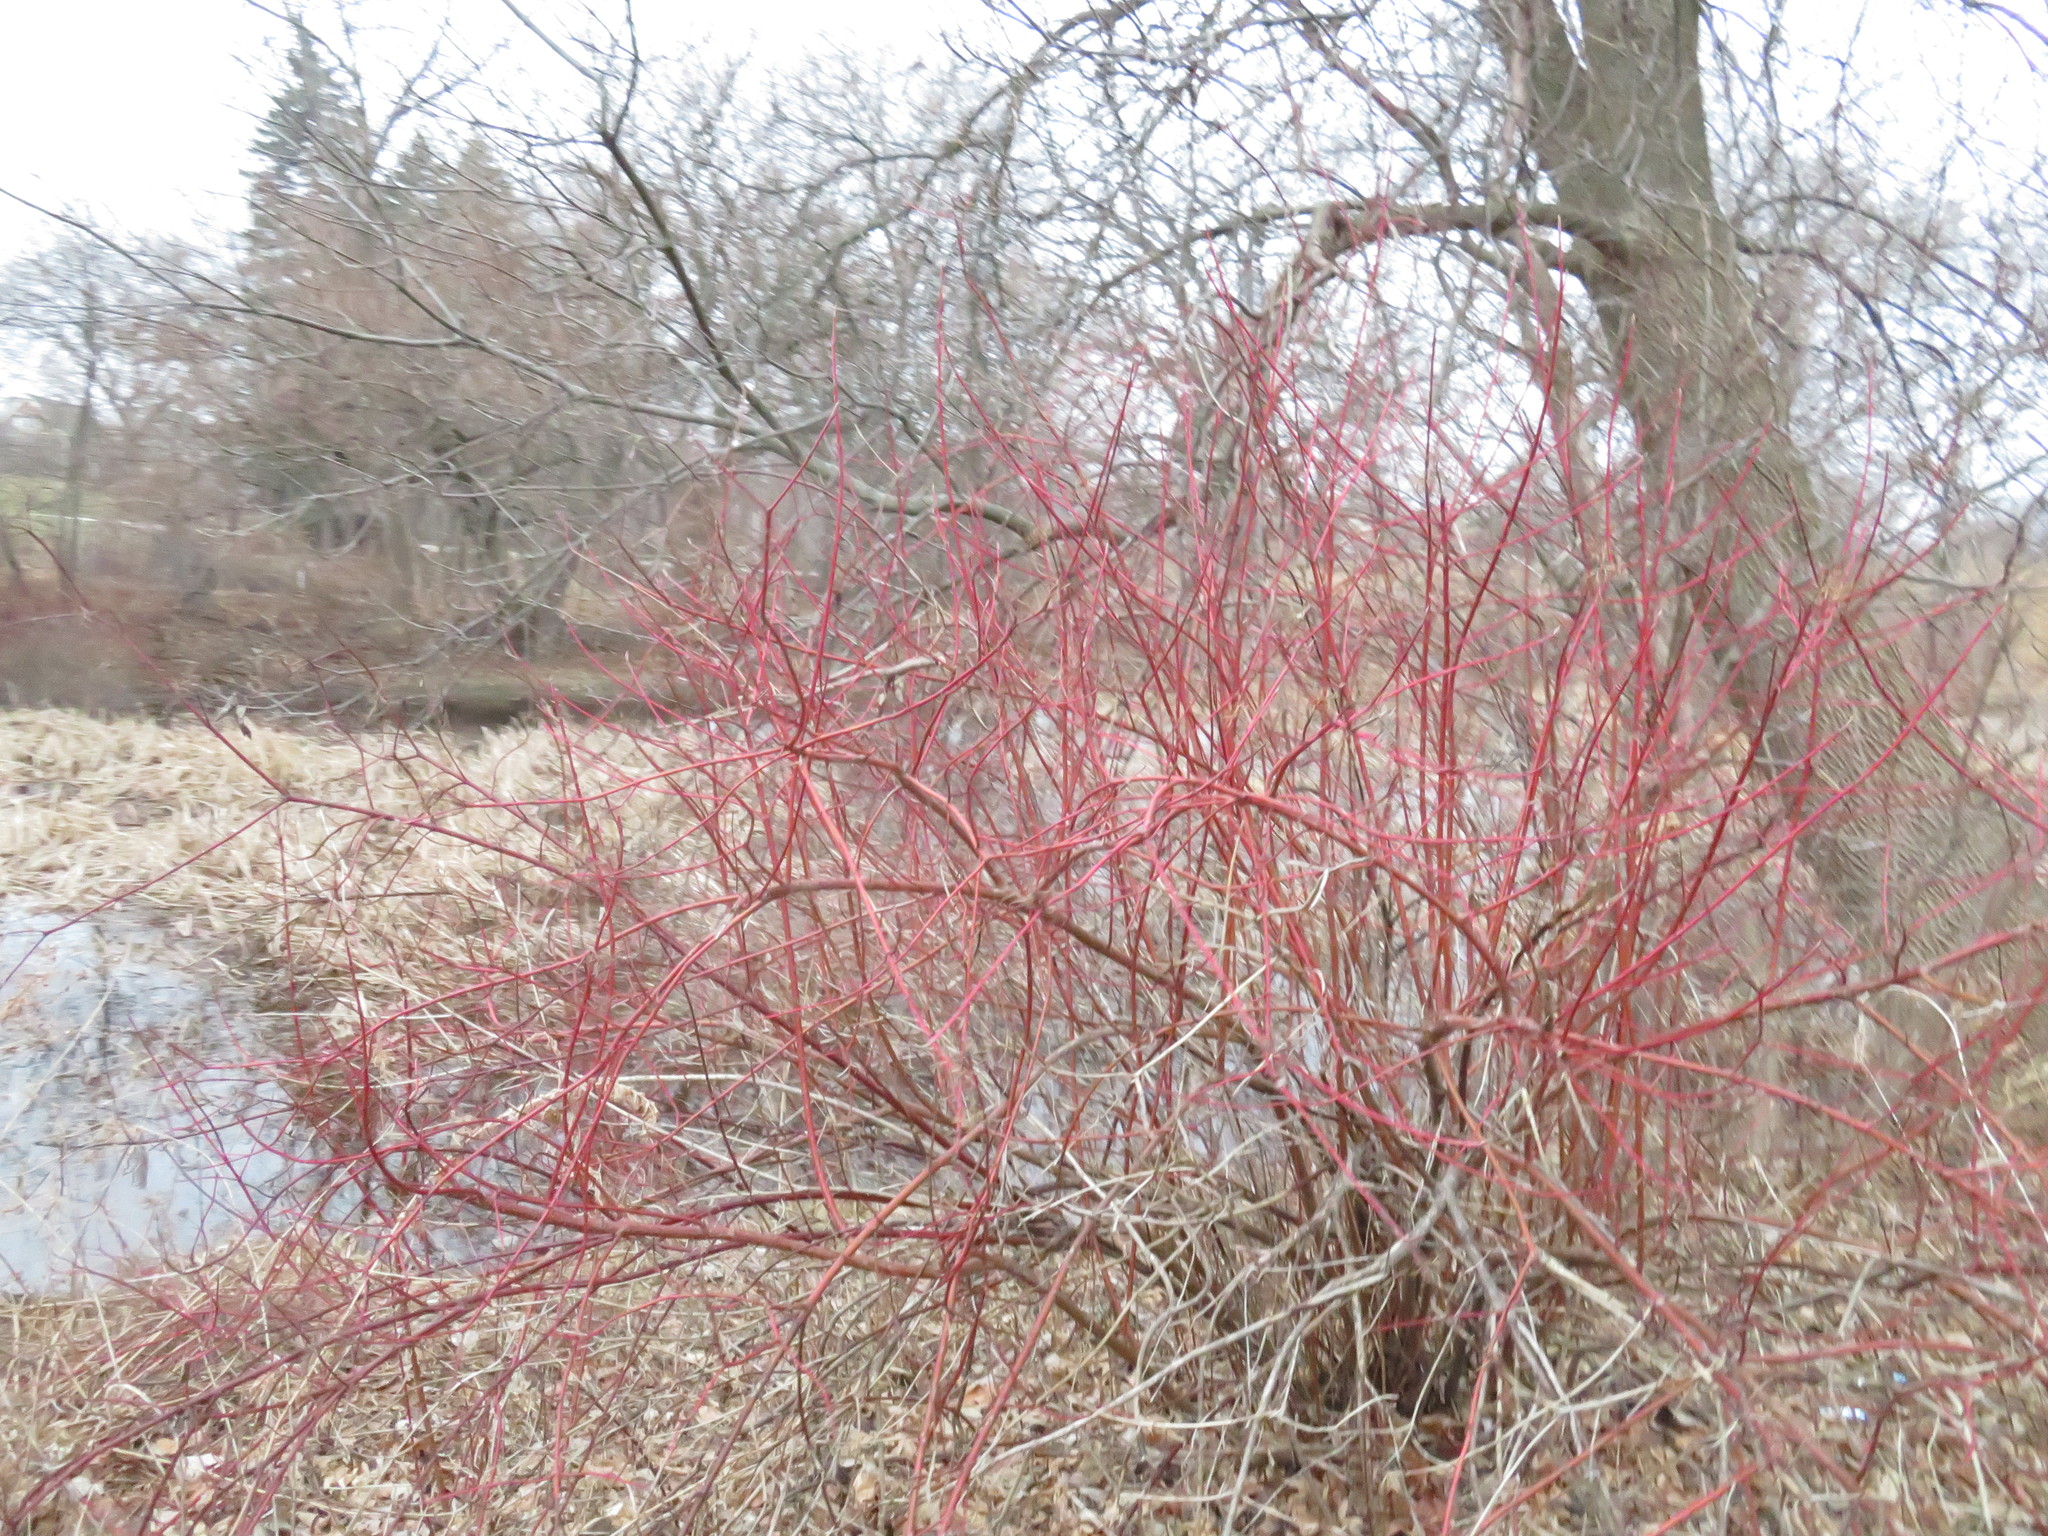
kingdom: Plantae
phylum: Tracheophyta
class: Magnoliopsida
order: Cornales
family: Cornaceae
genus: Cornus
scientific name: Cornus sericea
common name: Red-osier dogwood
